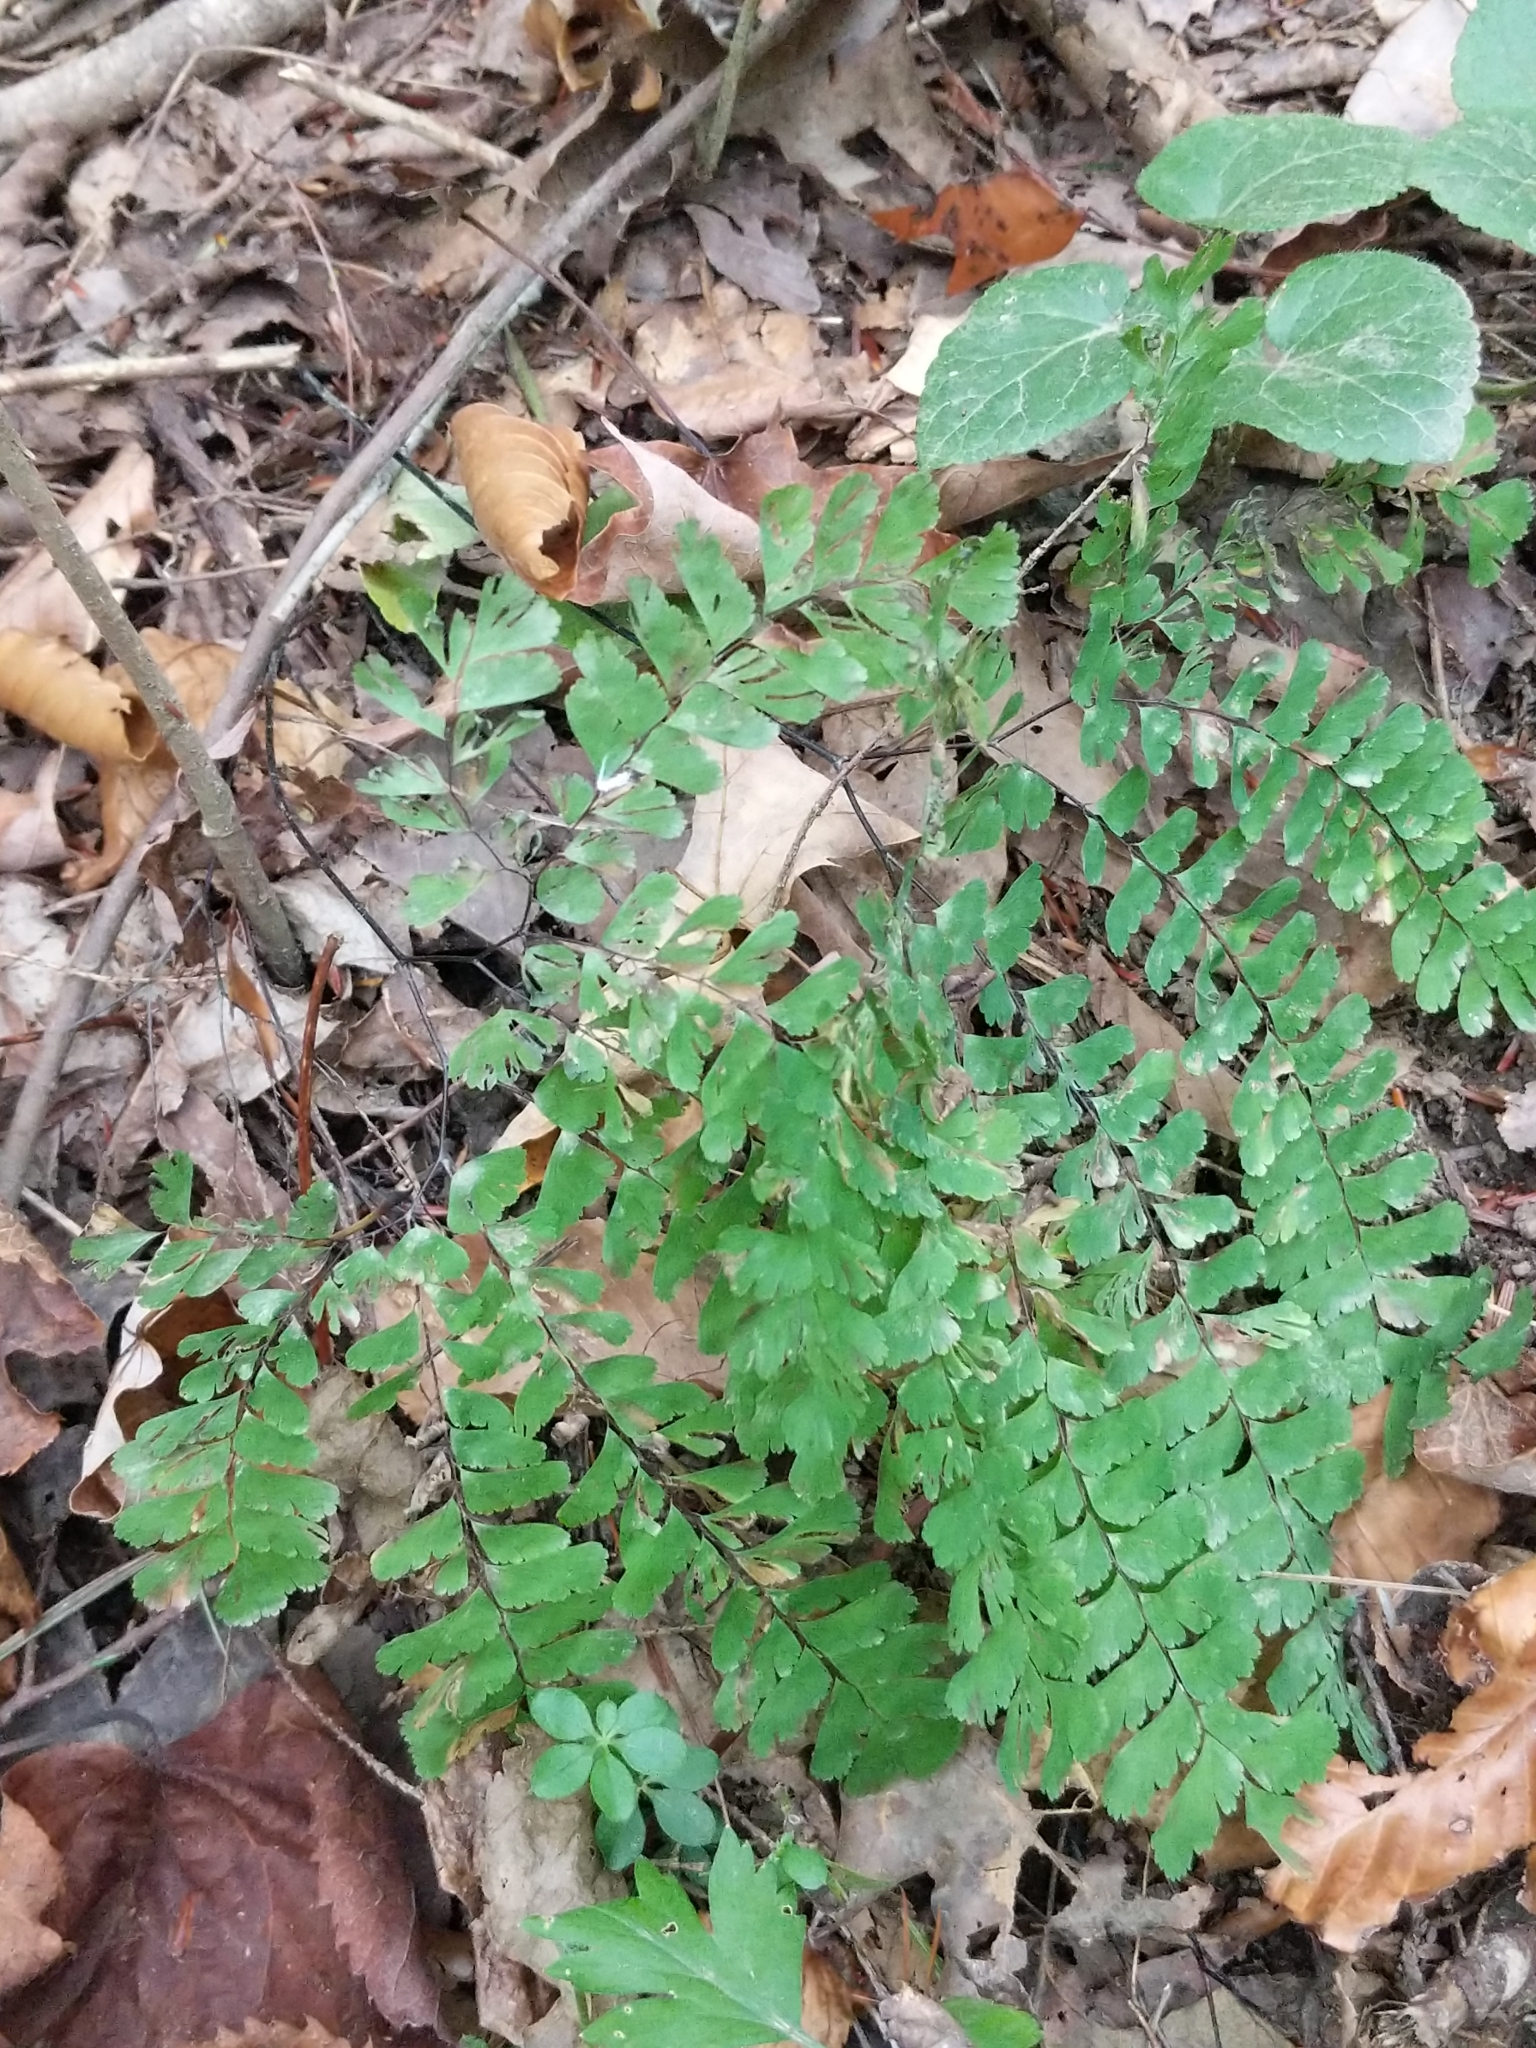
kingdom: Plantae
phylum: Tracheophyta
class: Polypodiopsida
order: Polypodiales
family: Pteridaceae
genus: Adiantum
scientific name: Adiantum pedatum
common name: Five-finger fern
